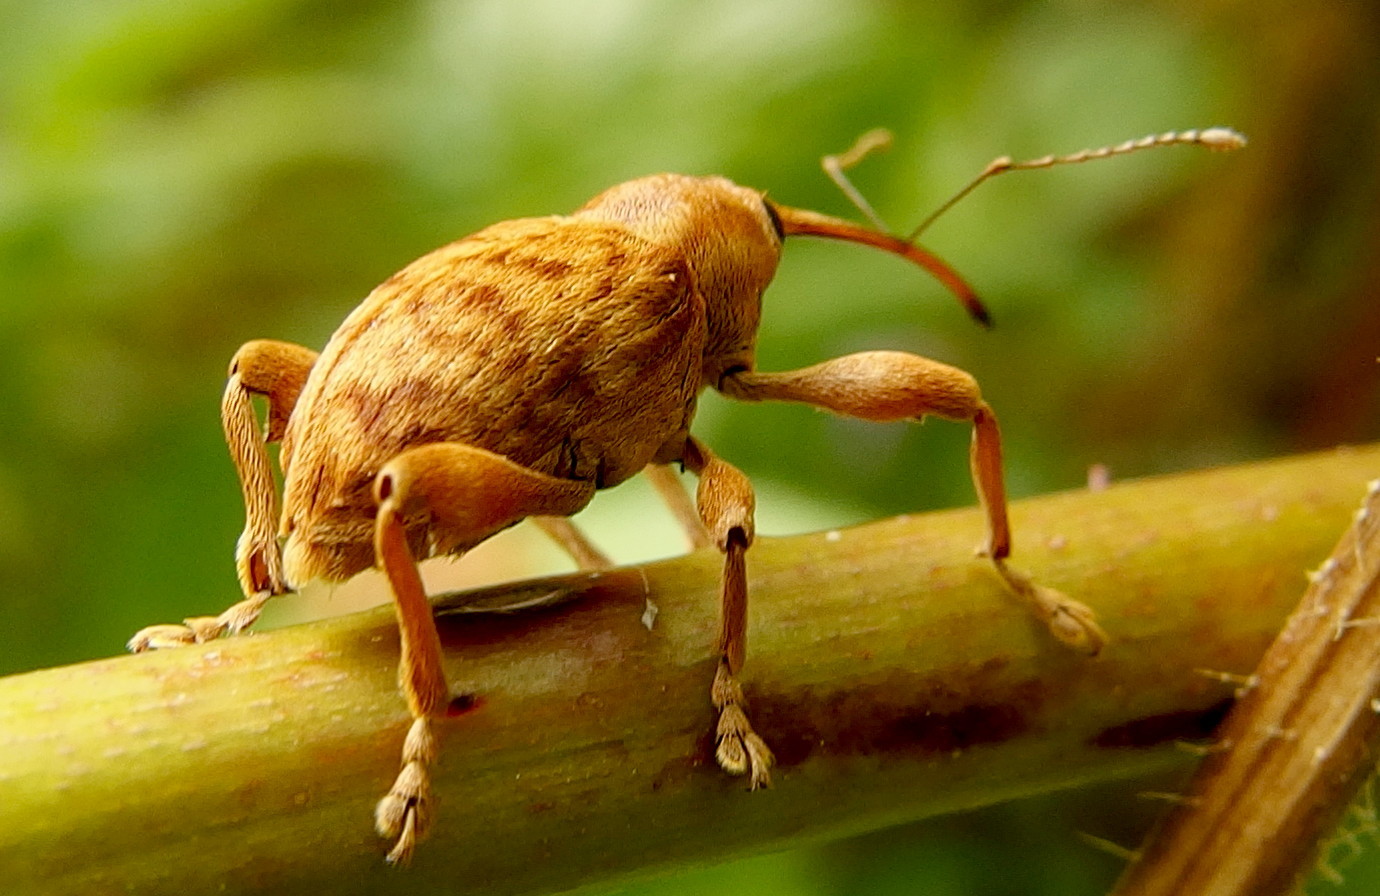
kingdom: Animalia
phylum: Arthropoda
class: Insecta
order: Coleoptera
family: Curculionidae
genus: Curculio
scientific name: Curculio pellitus
